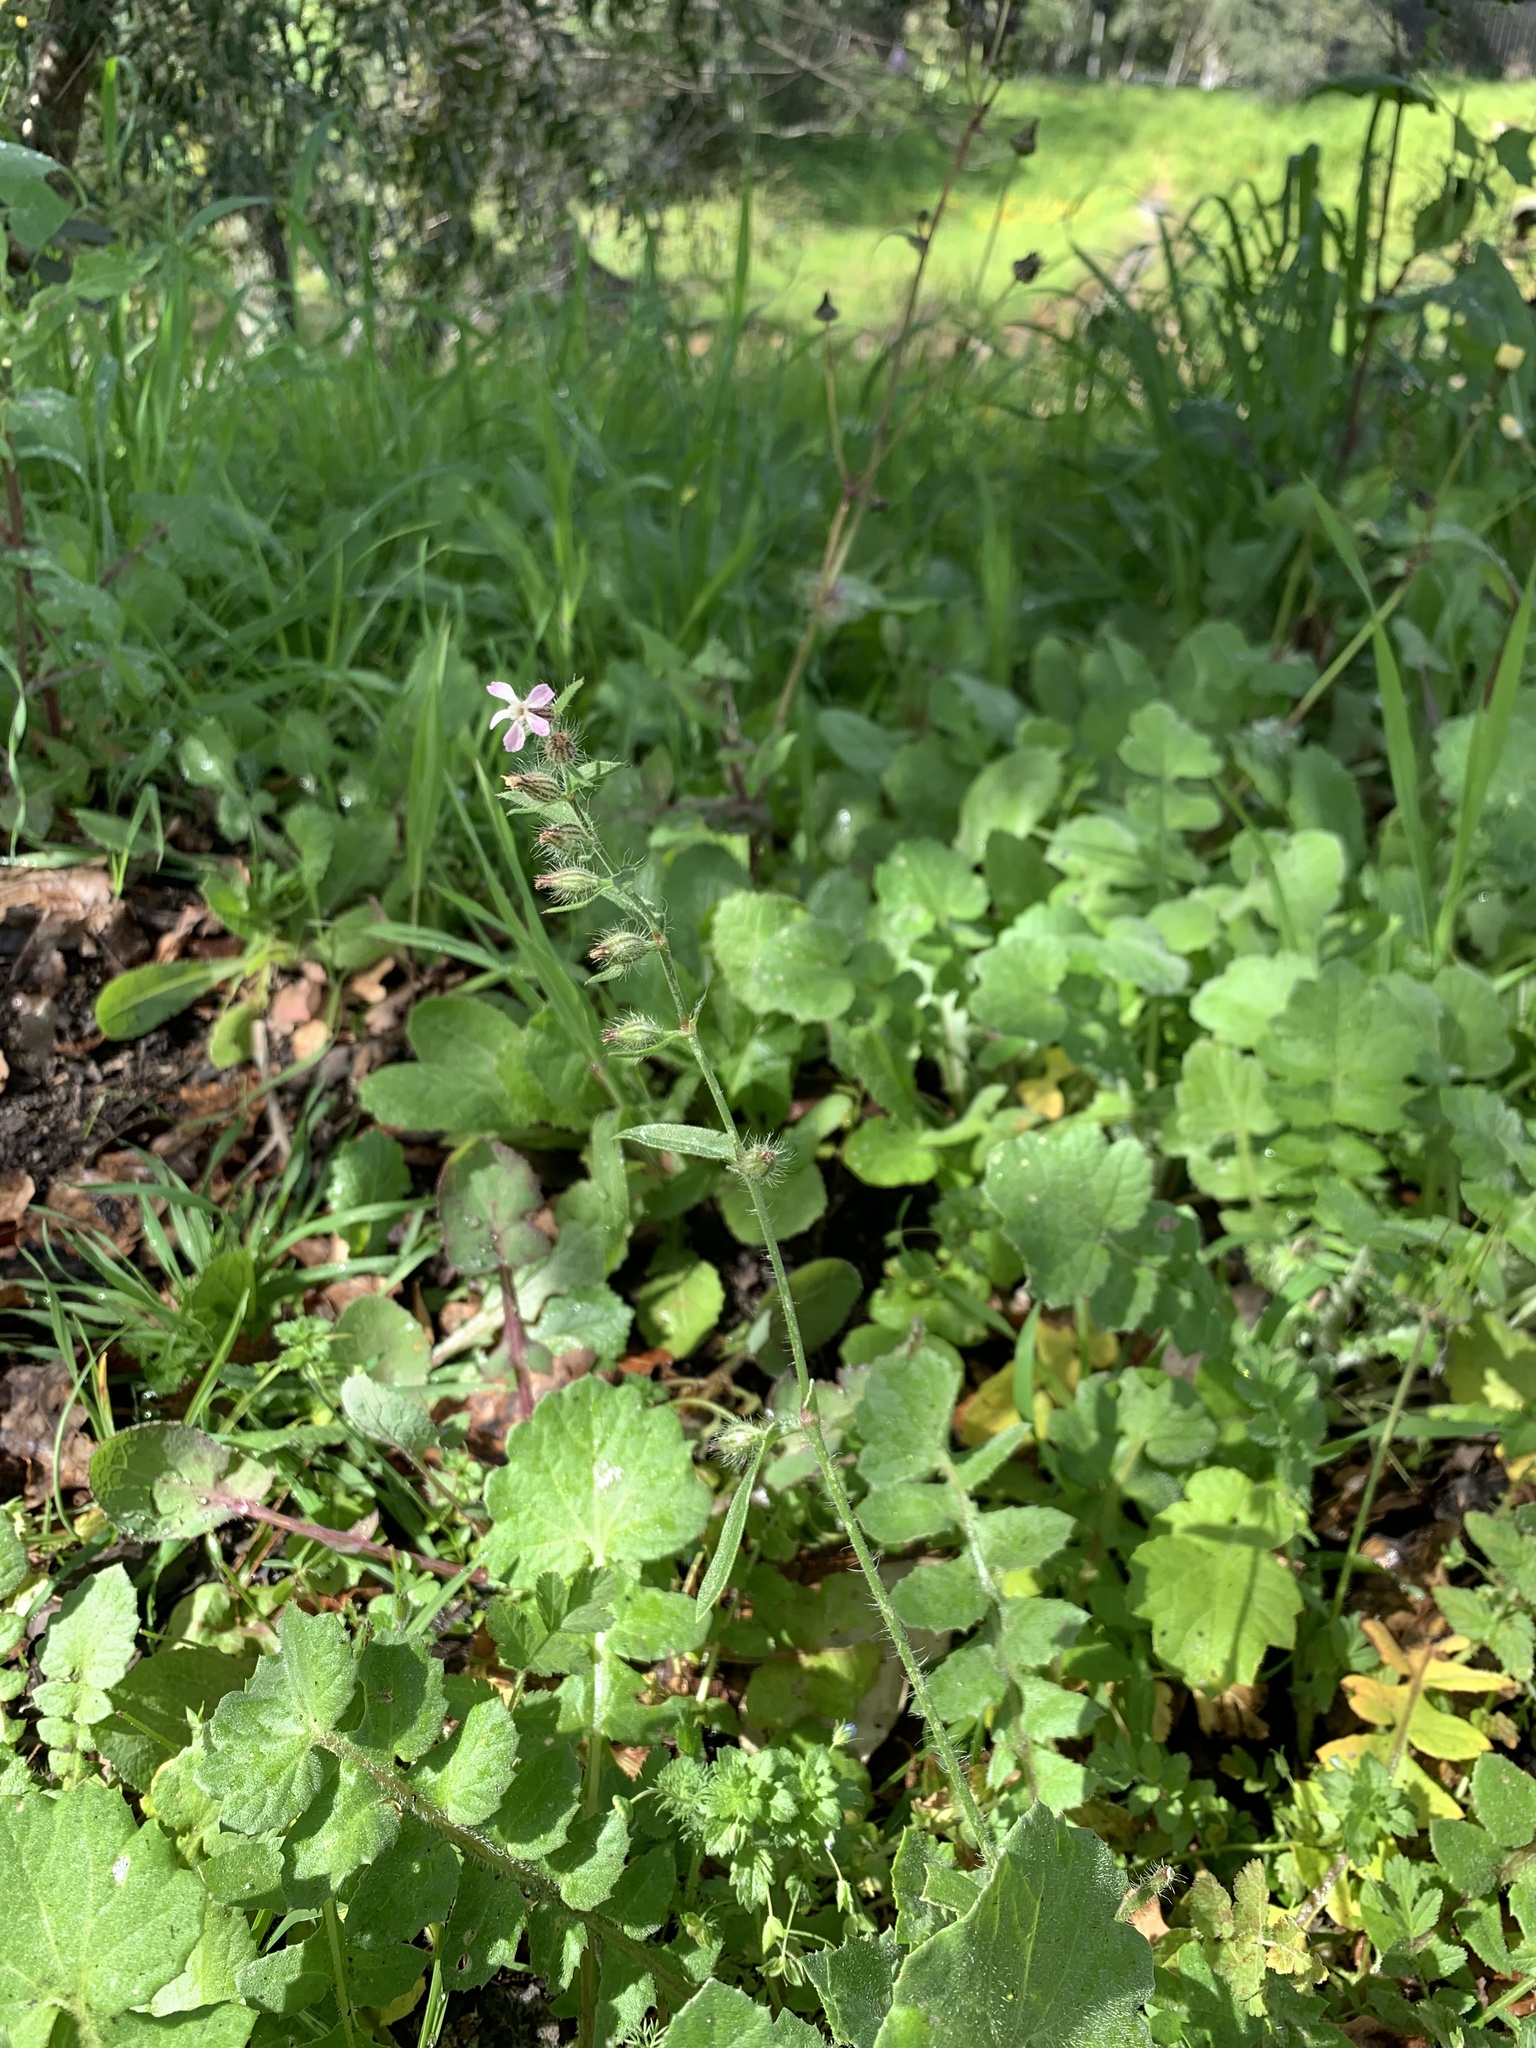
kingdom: Plantae
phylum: Tracheophyta
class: Magnoliopsida
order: Caryophyllales
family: Caryophyllaceae
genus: Silene
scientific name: Silene gallica
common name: Small-flowered catchfly
